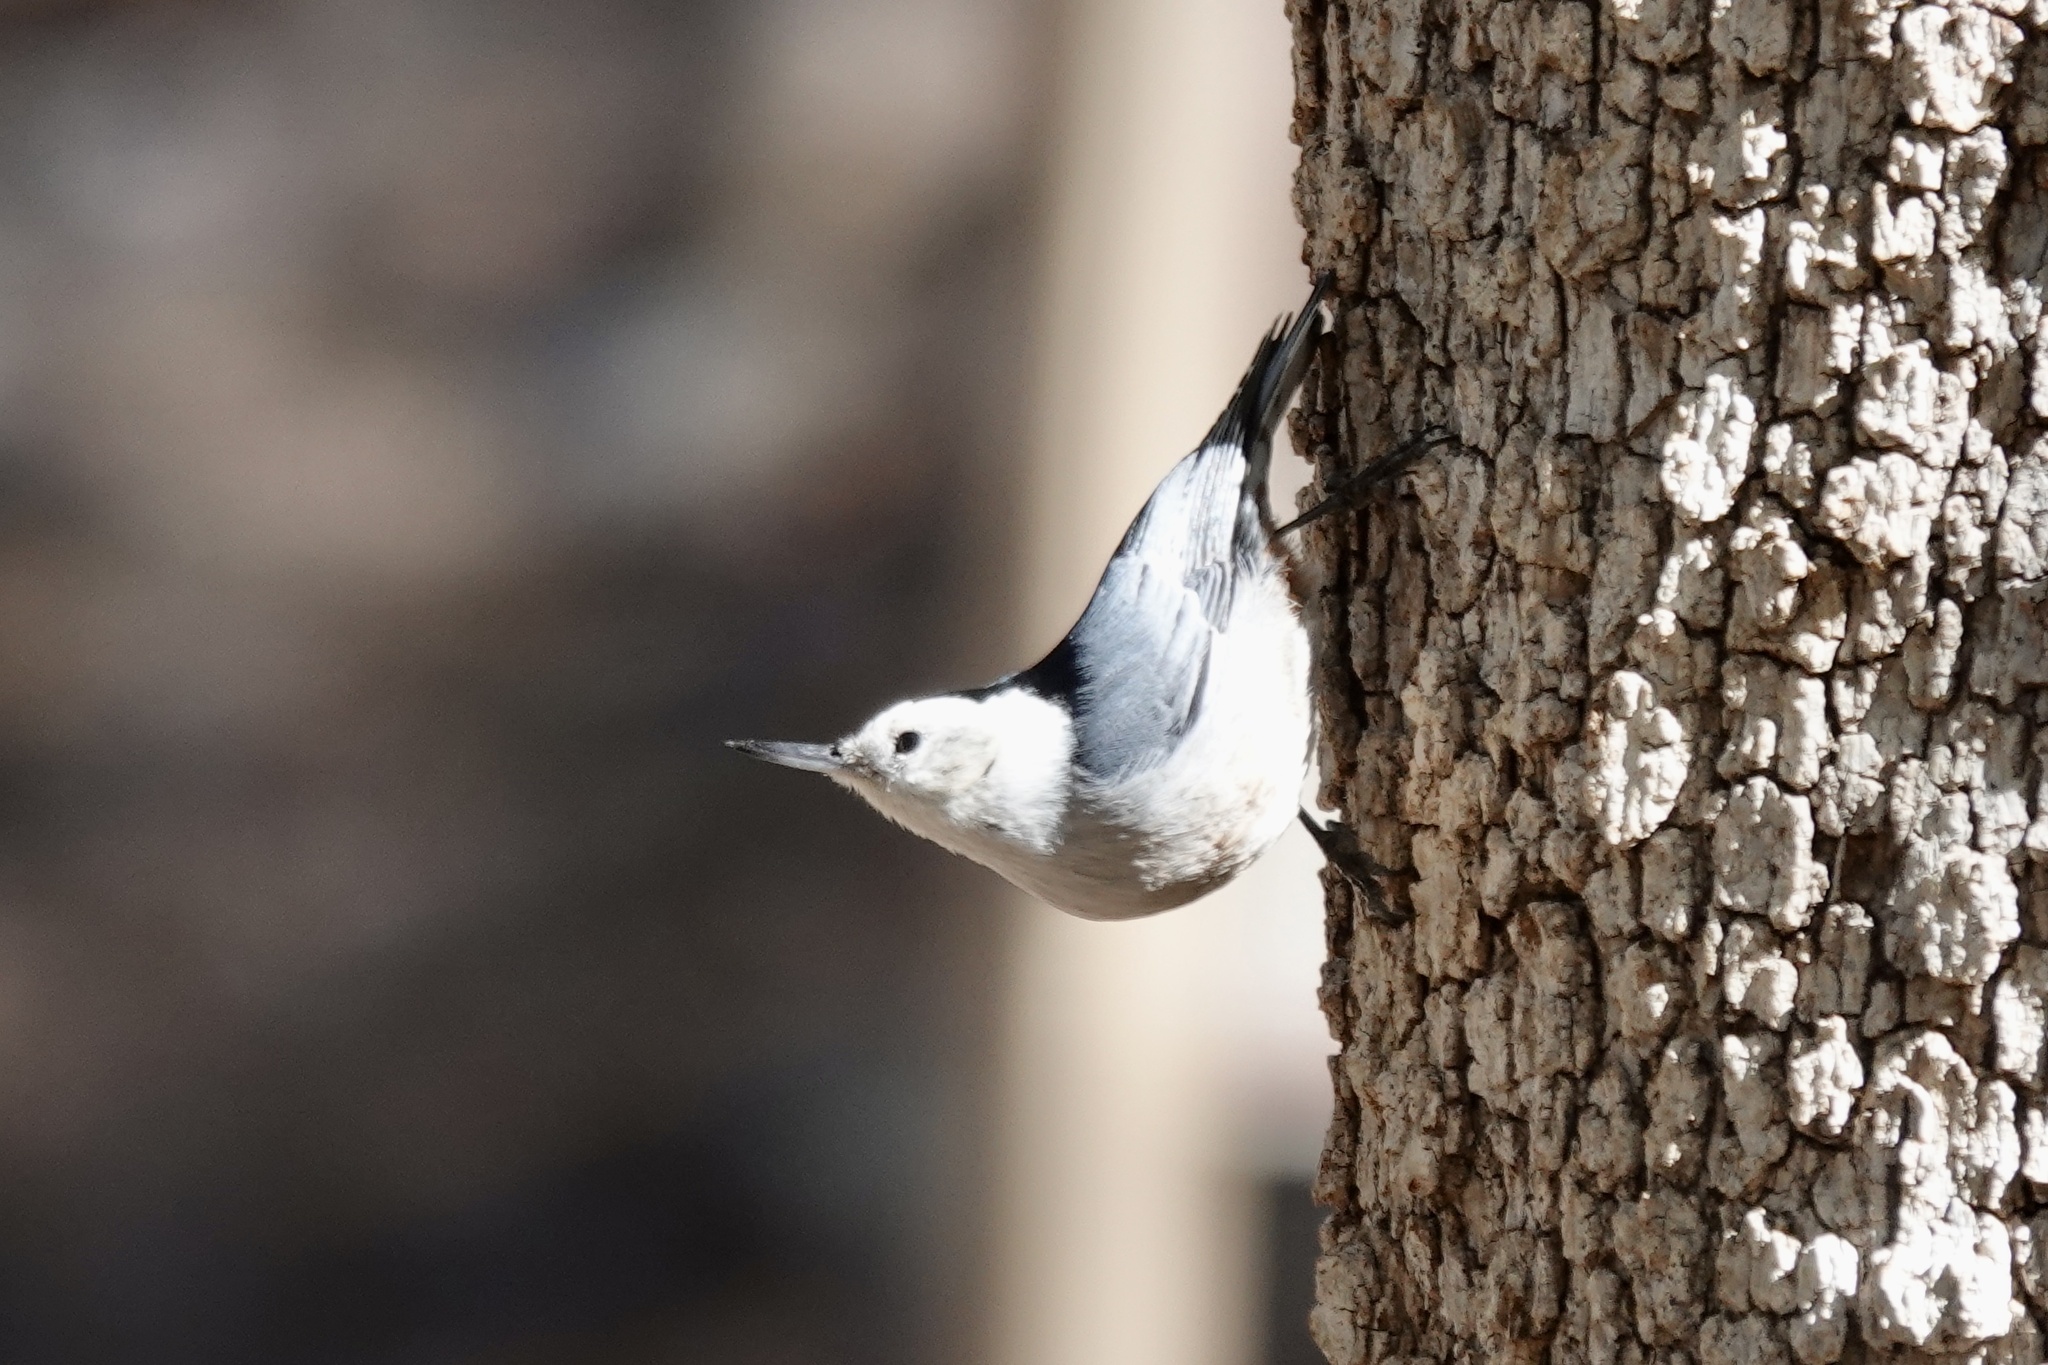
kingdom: Animalia
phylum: Chordata
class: Aves
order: Passeriformes
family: Sittidae
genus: Sitta
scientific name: Sitta carolinensis
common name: White-breasted nuthatch
